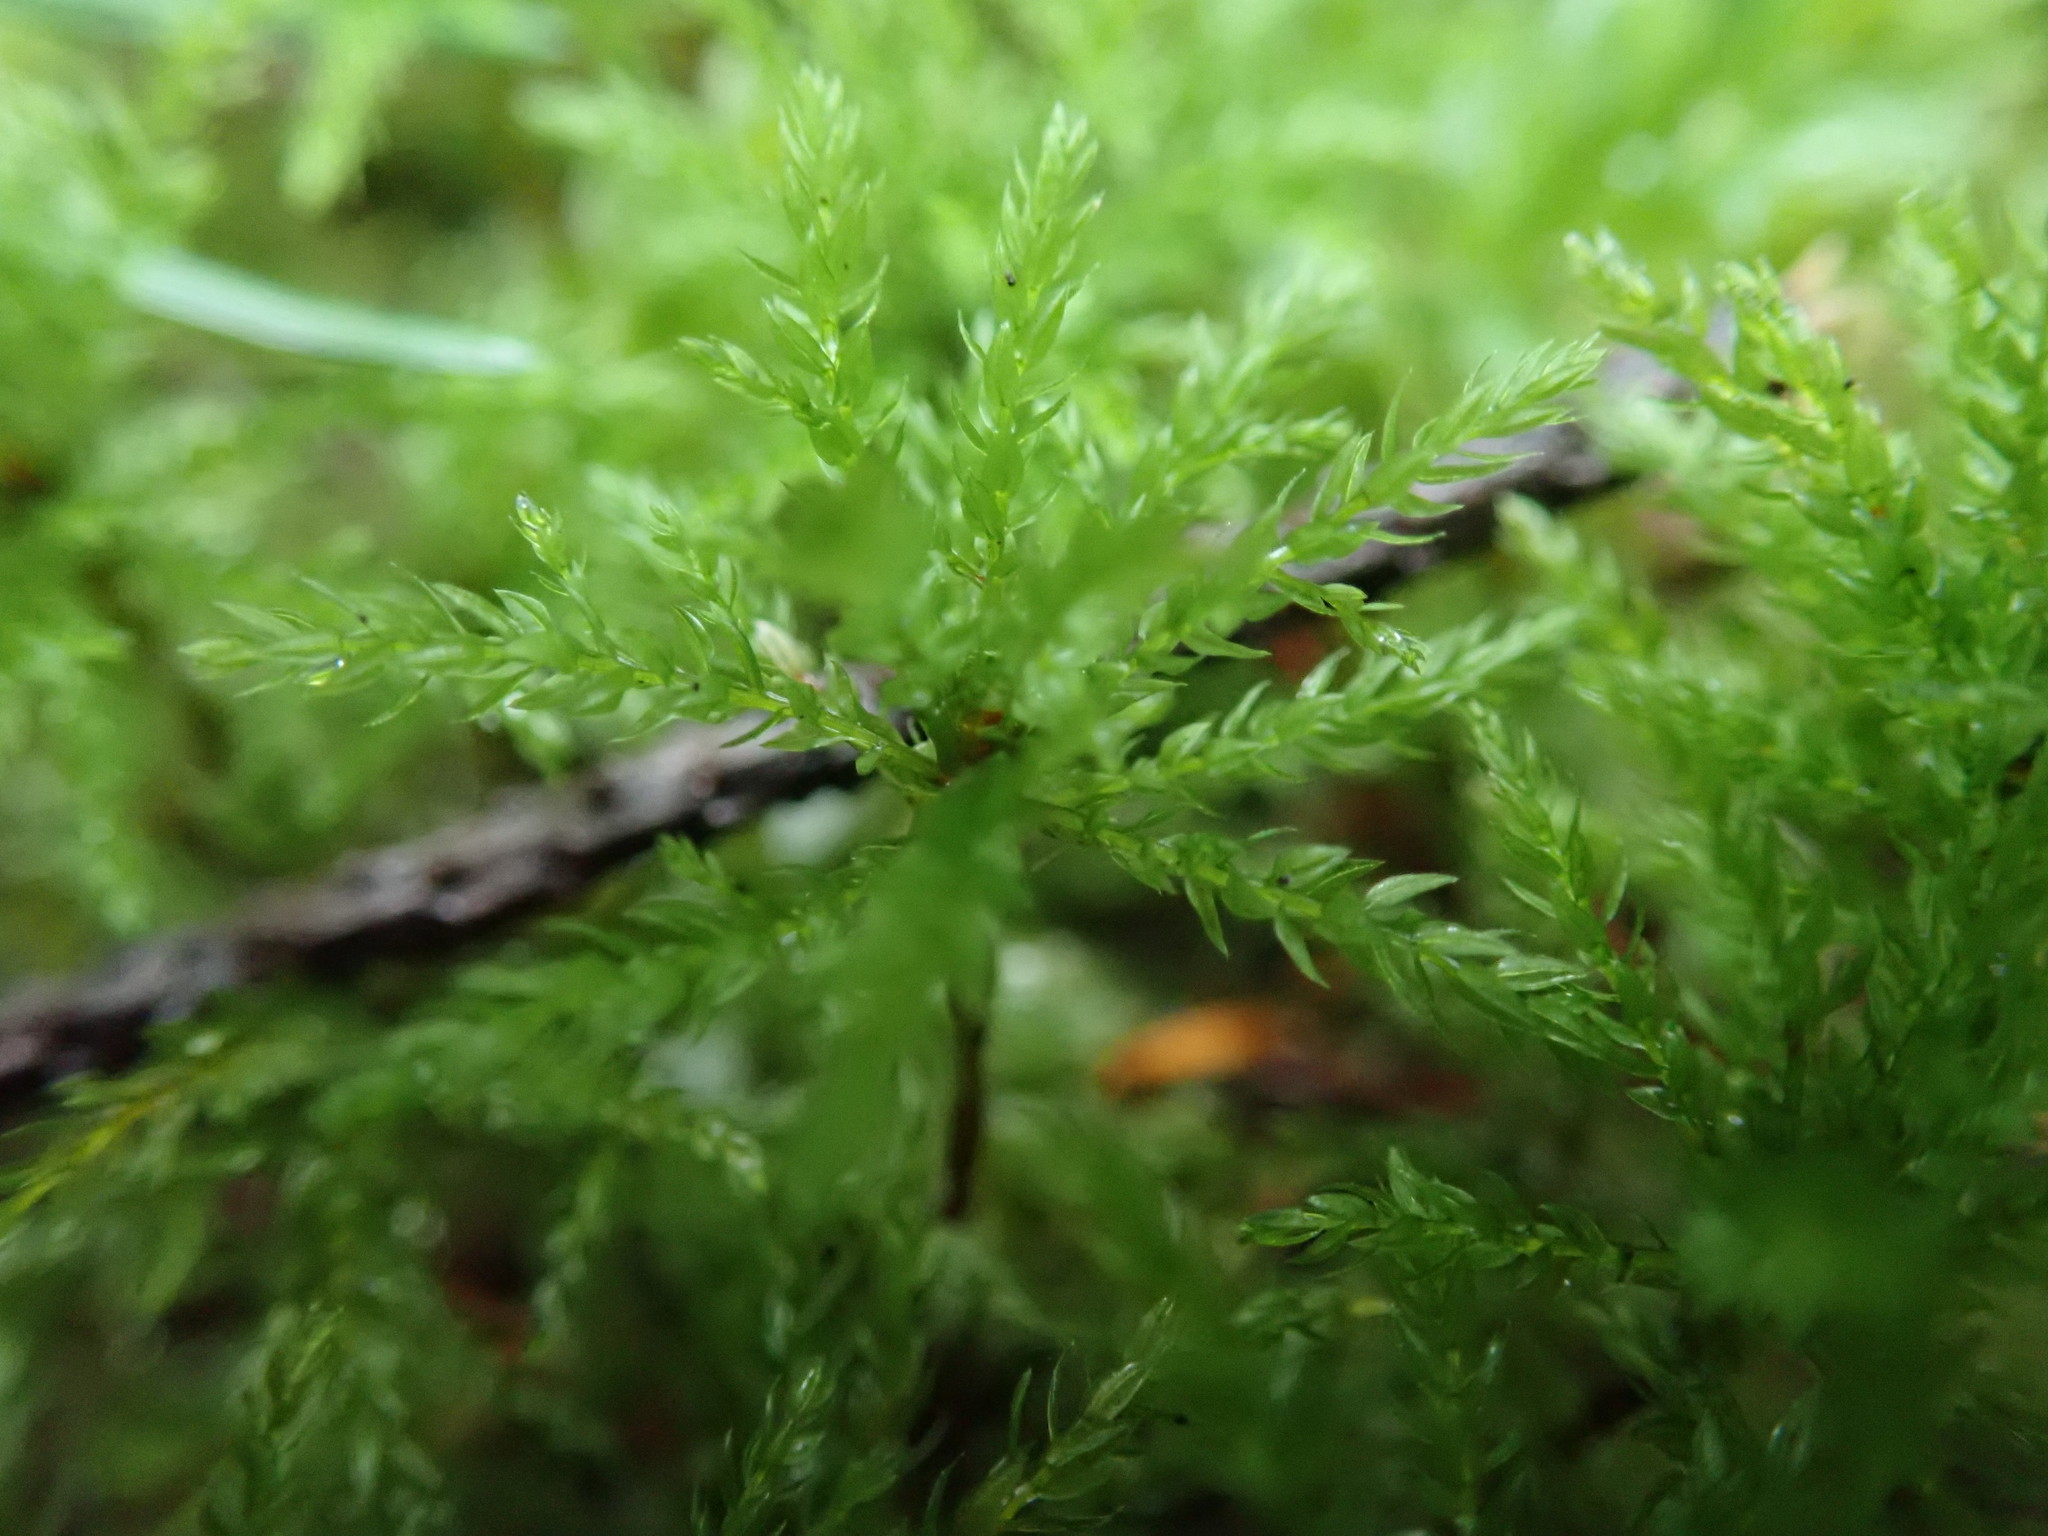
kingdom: Plantae
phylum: Bryophyta
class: Bryopsida
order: Bryales
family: Mniaceae
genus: Leucolepis
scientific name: Leucolepis acanthoneura
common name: Leucolepis umbrella moss
